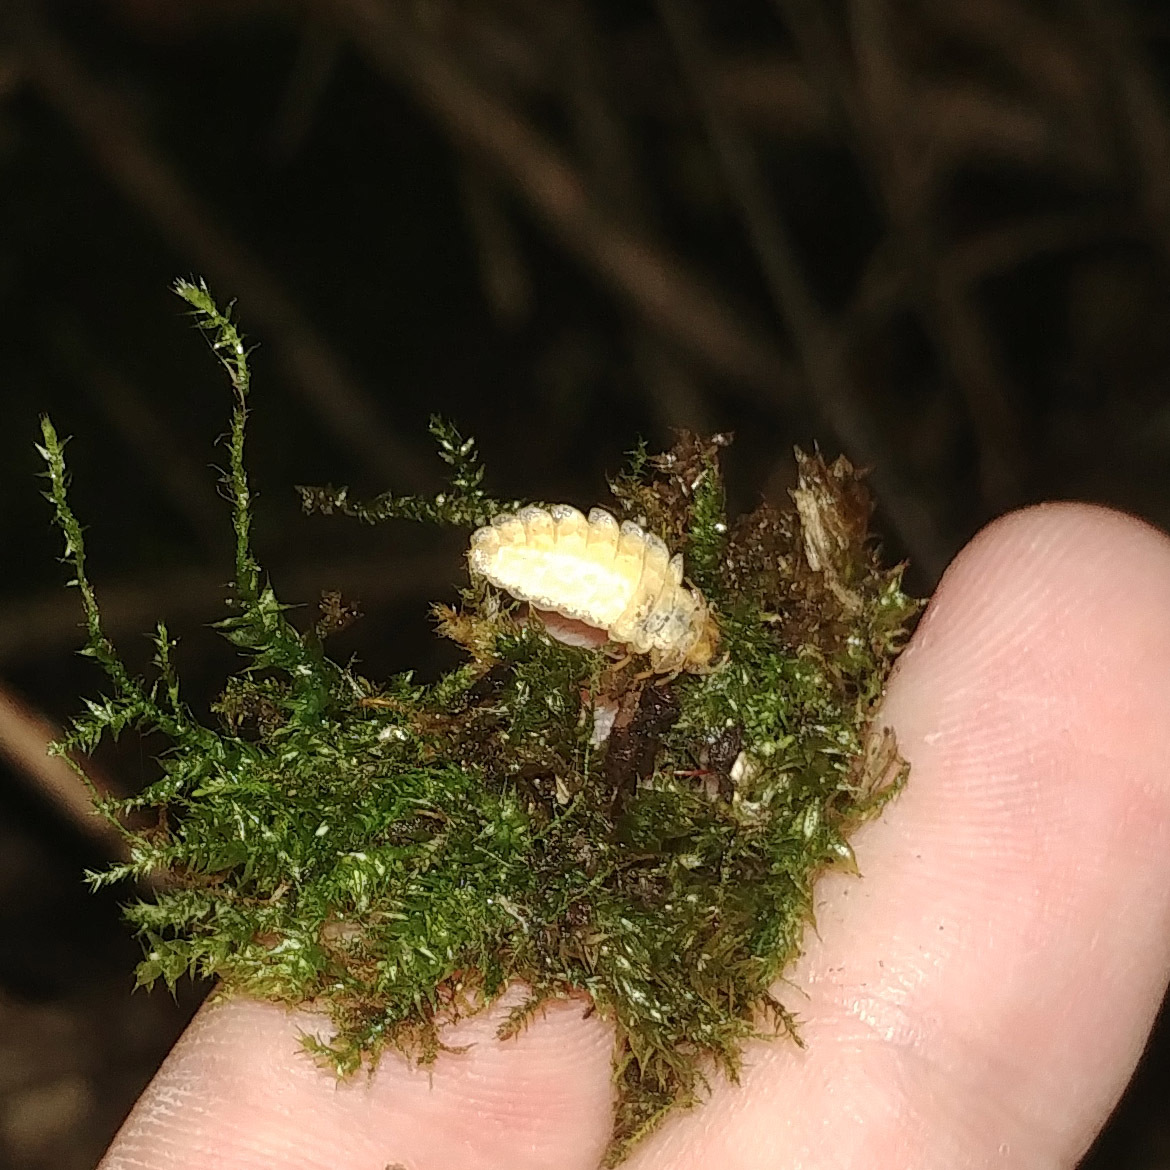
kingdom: Animalia
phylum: Arthropoda
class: Insecta
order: Coleoptera
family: Lampyridae
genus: Lamprohiza
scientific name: Lamprohiza splendidula
